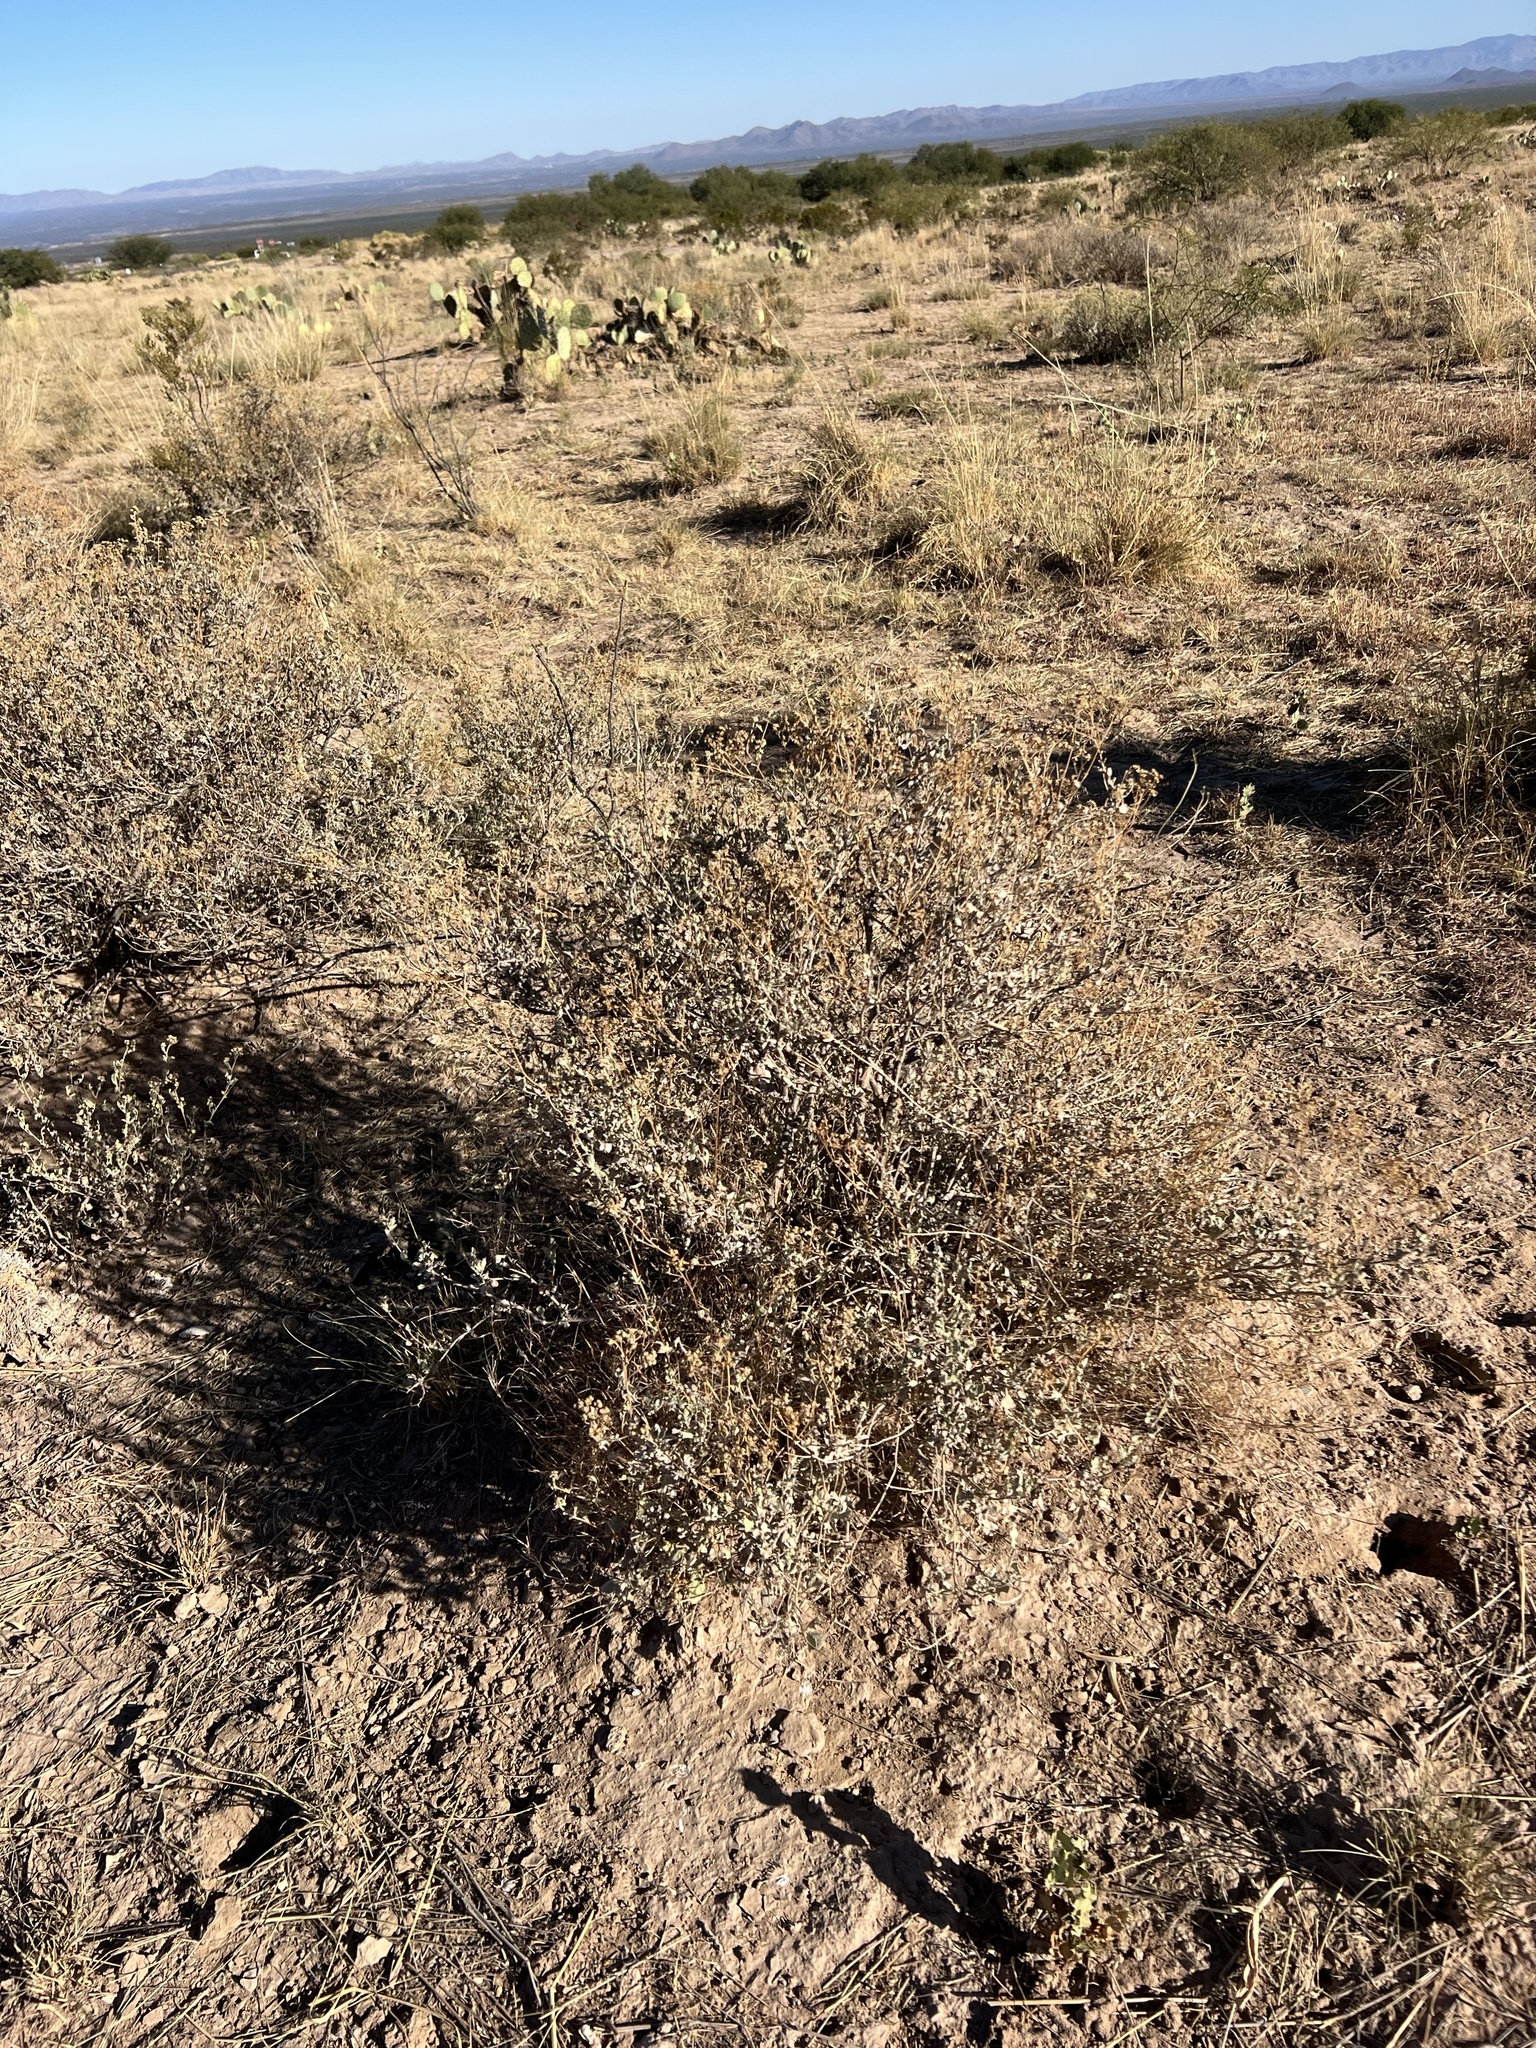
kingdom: Plantae
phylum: Tracheophyta
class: Magnoliopsida
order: Asterales
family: Asteraceae
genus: Parthenium
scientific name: Parthenium incanum
